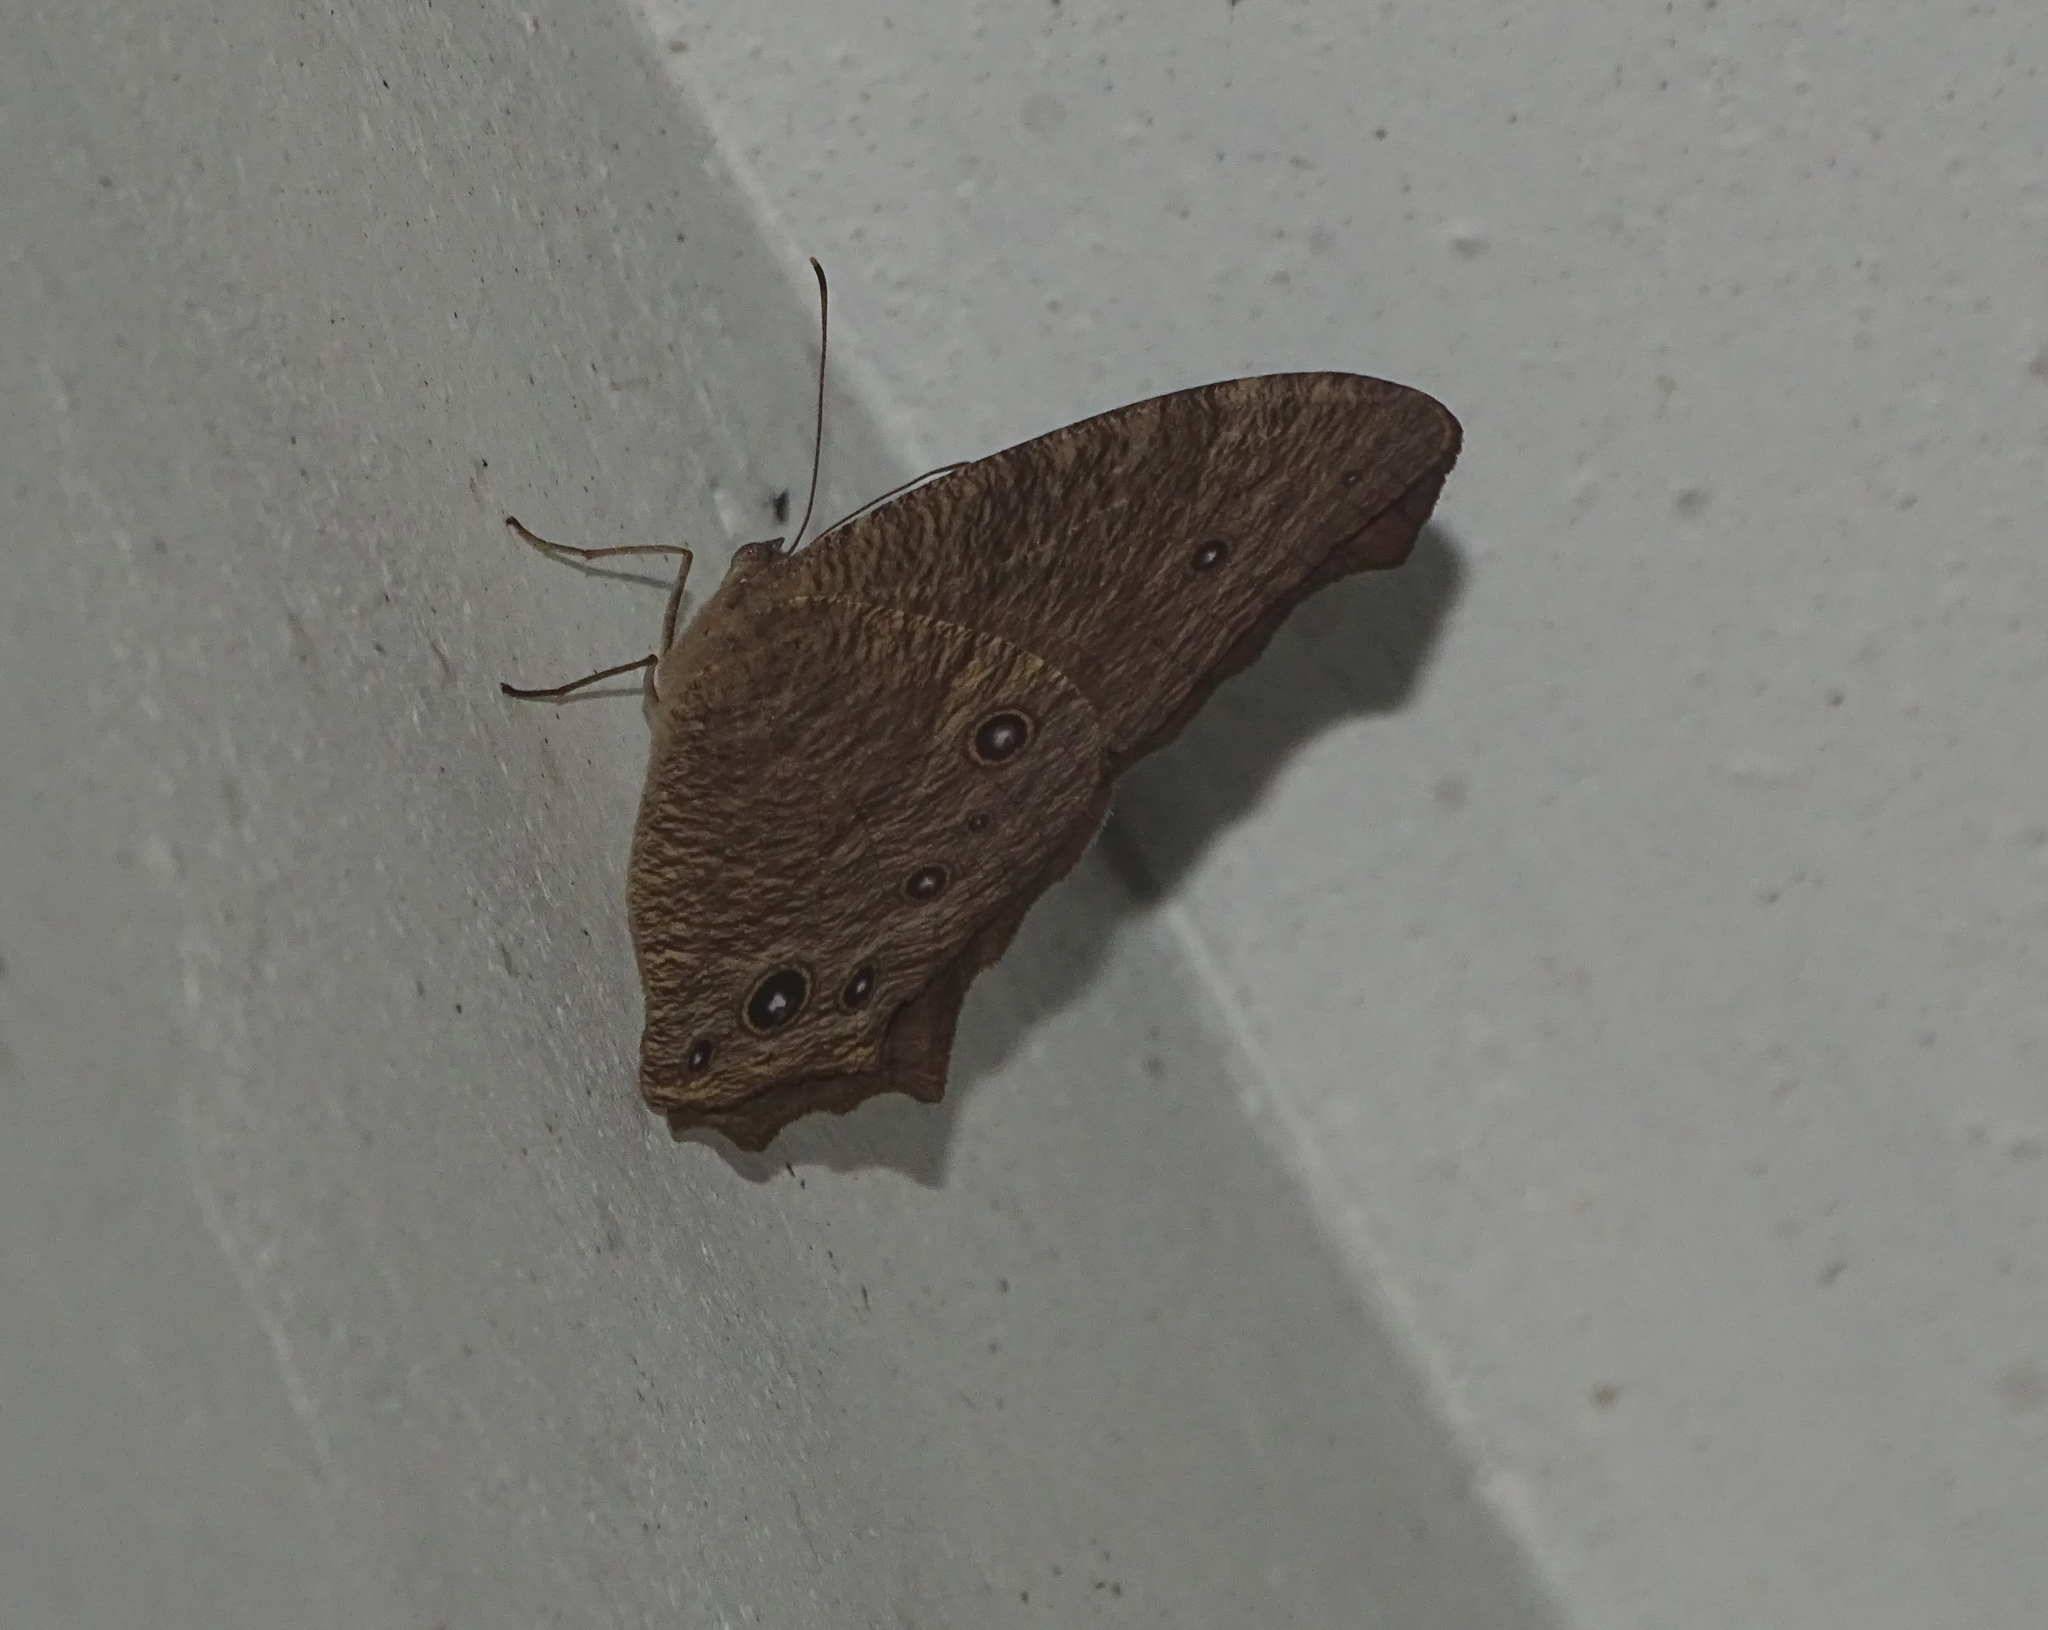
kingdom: Animalia
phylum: Arthropoda
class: Insecta
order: Lepidoptera
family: Nymphalidae
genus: Melanitis
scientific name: Melanitis leda
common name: Twilight brown
